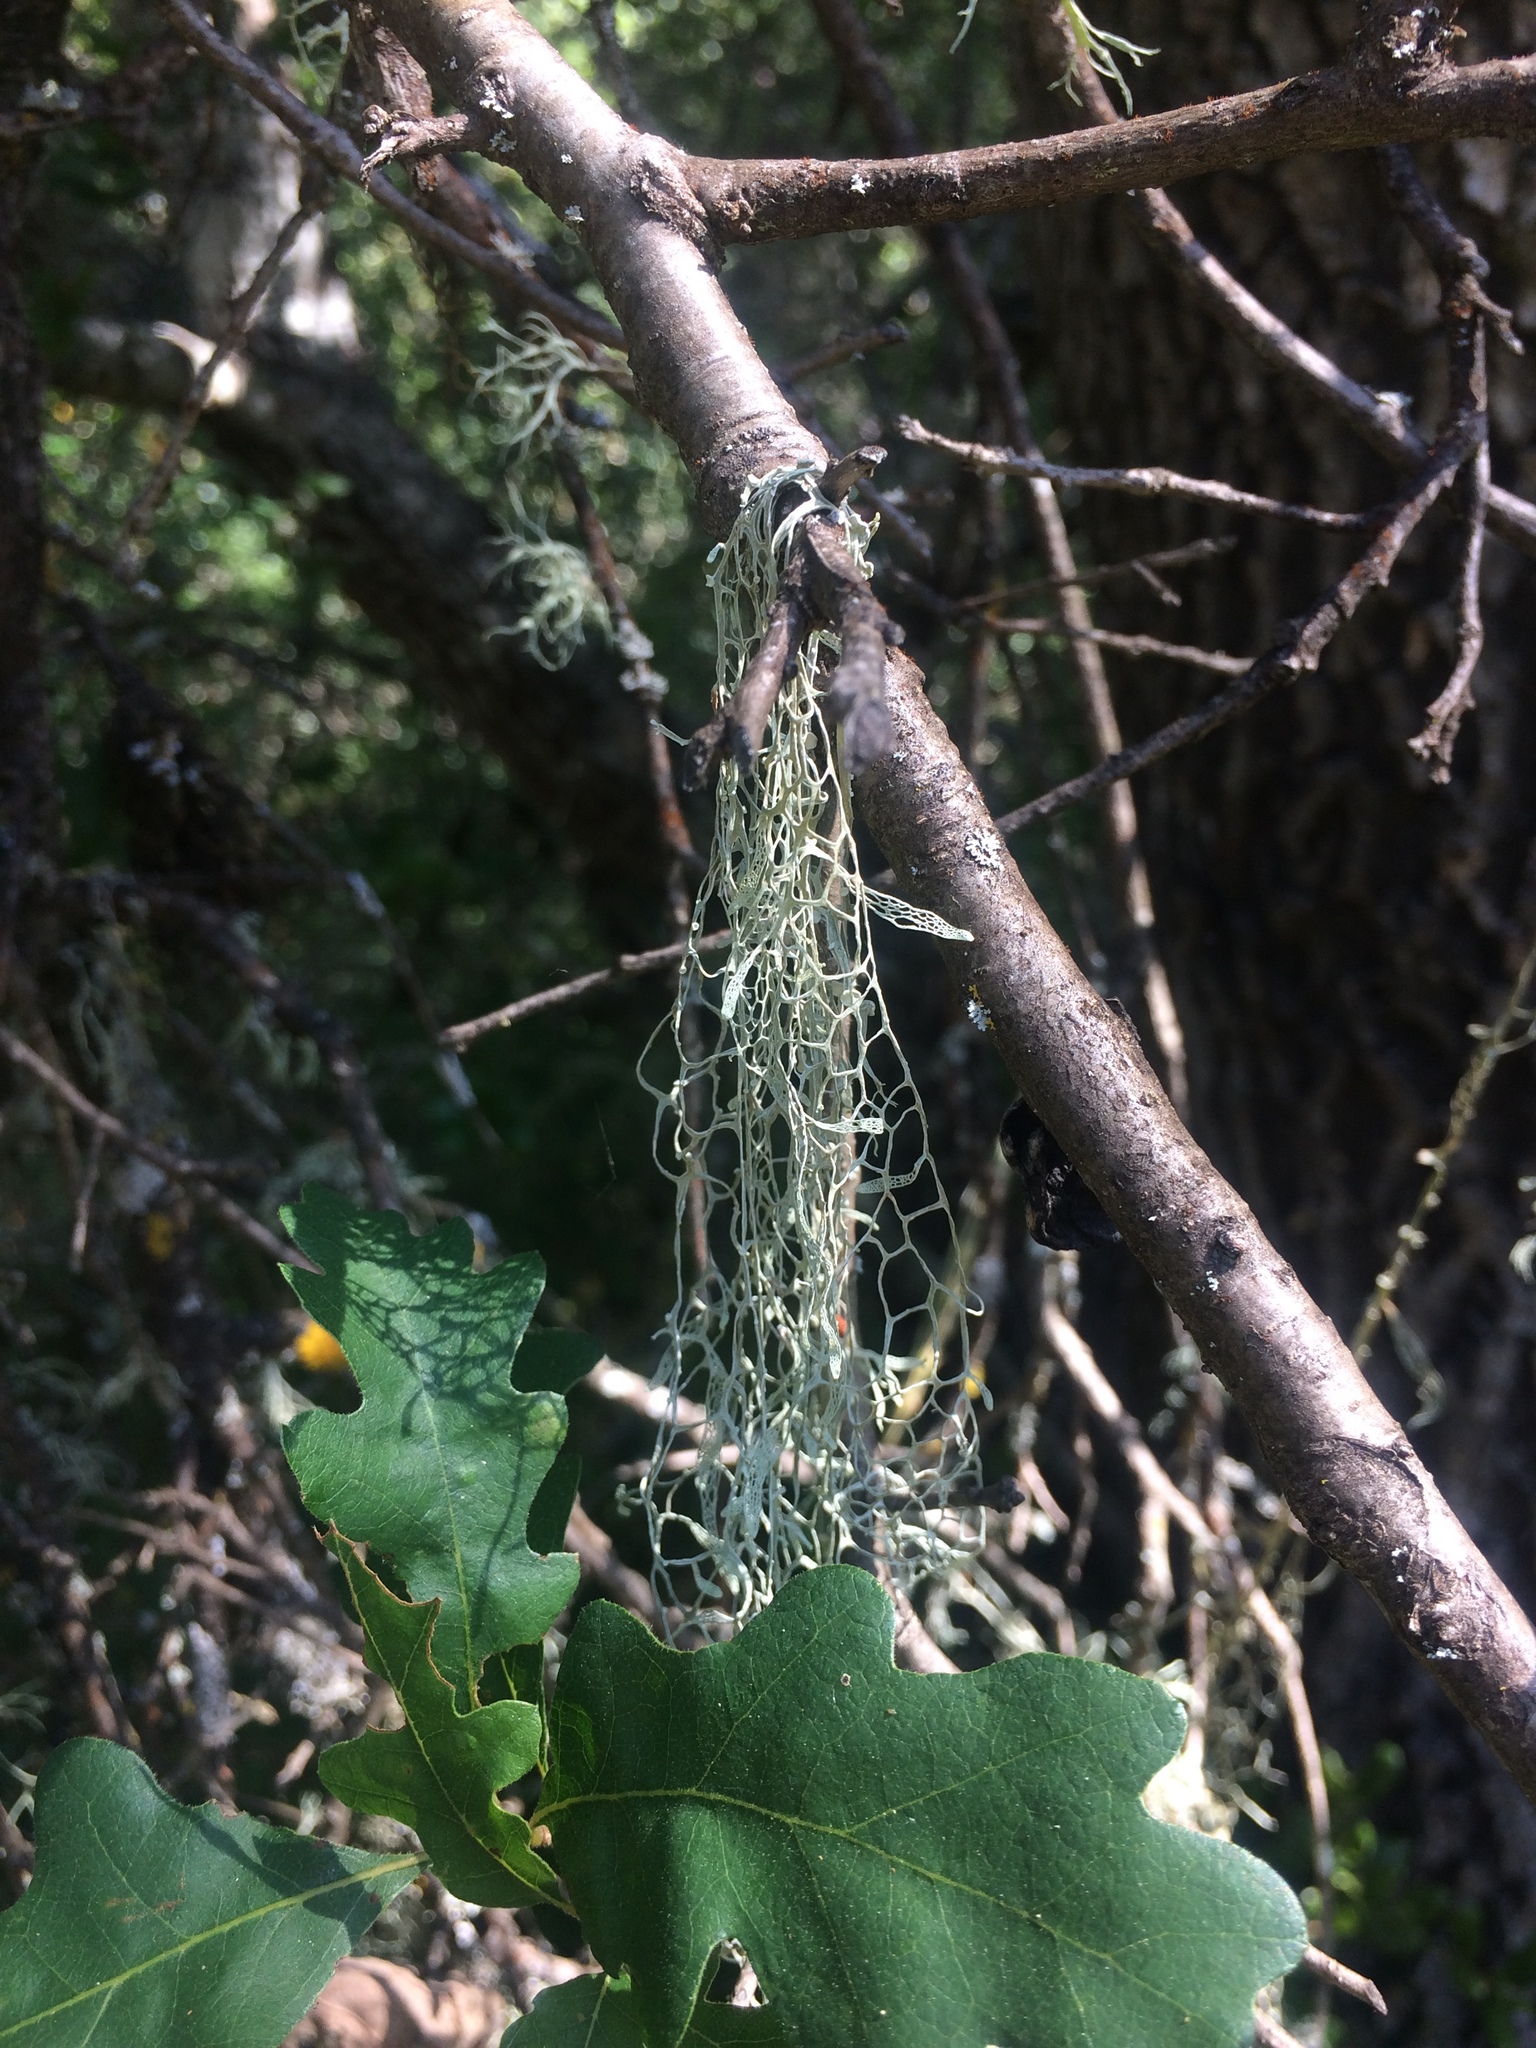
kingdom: Fungi
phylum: Ascomycota
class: Lecanoromycetes
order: Lecanorales
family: Ramalinaceae
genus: Ramalina
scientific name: Ramalina menziesii
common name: Lace lichen
